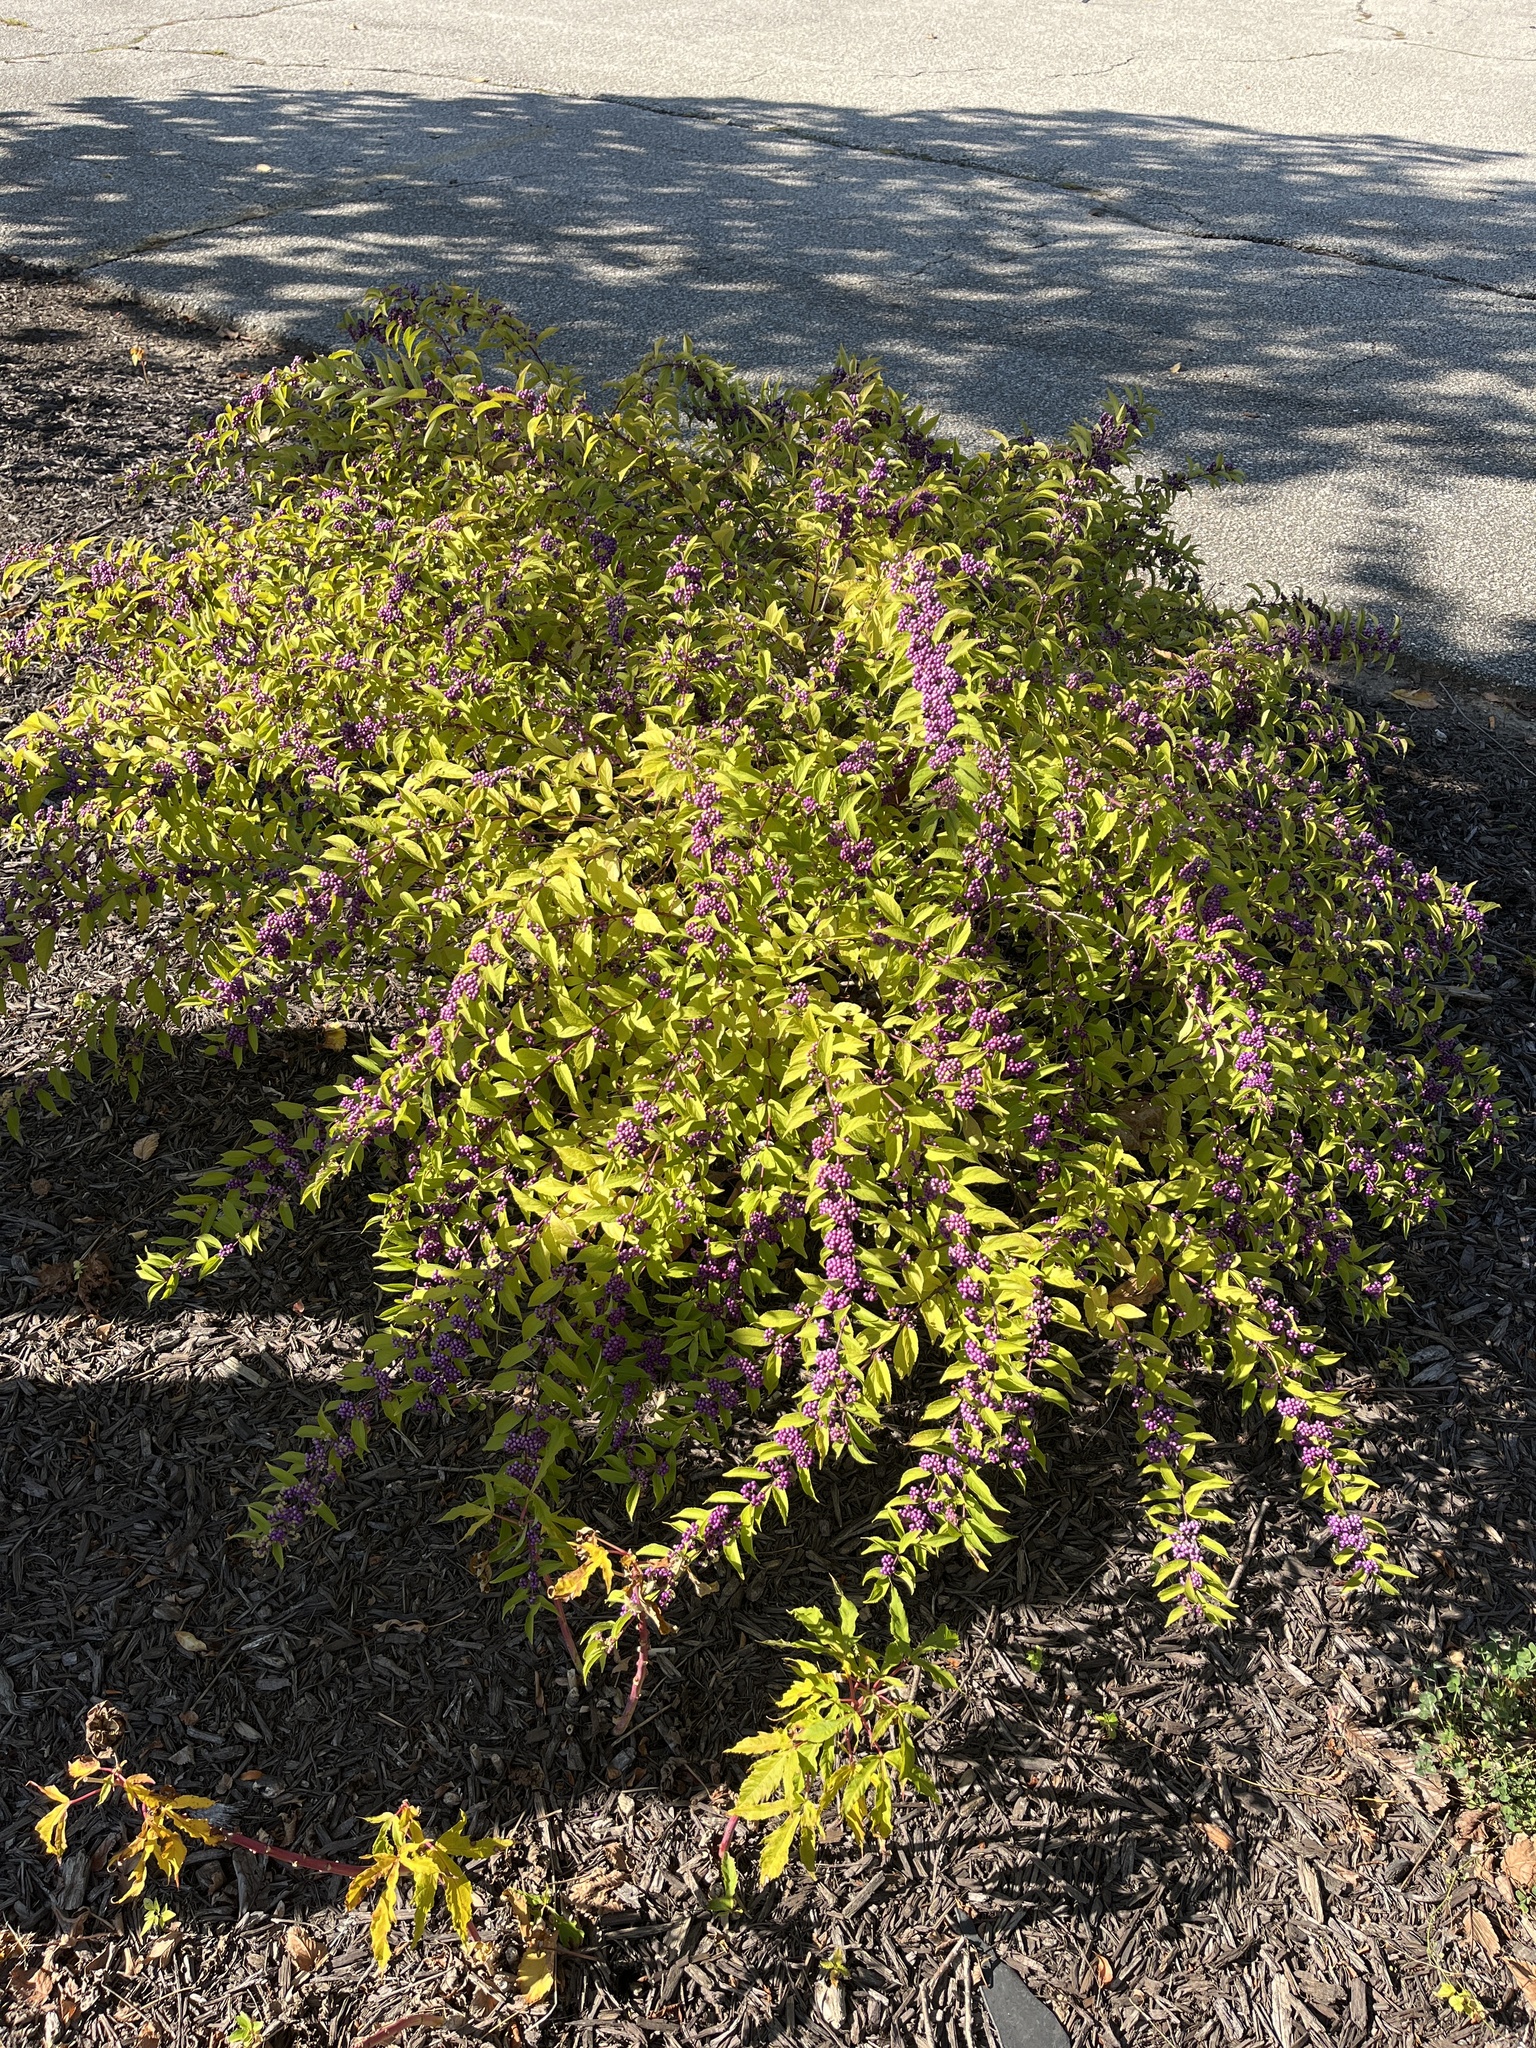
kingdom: Plantae
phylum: Tracheophyta
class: Magnoliopsida
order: Lamiales
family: Lamiaceae
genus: Callicarpa
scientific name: Callicarpa dichotoma
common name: Purple beauty-berry
